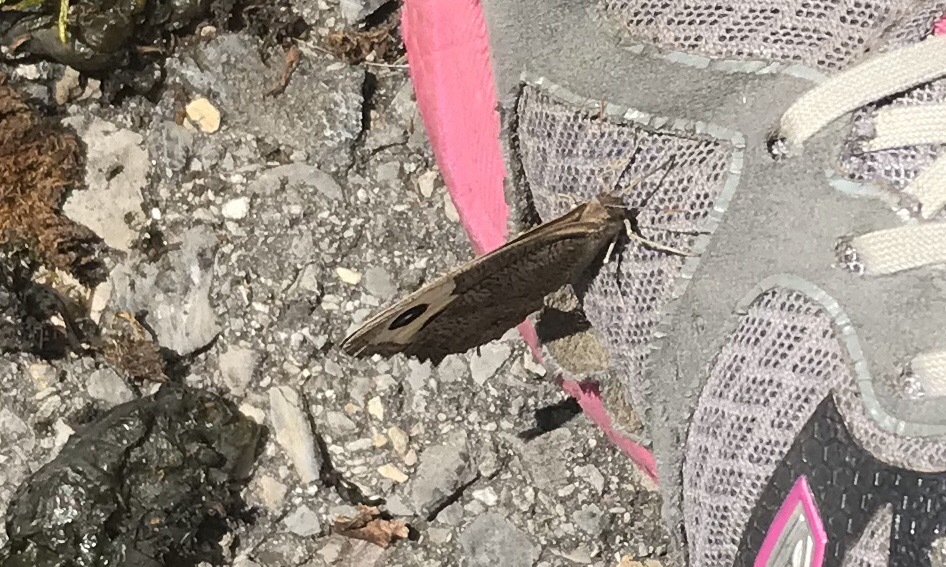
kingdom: Animalia
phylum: Arthropoda
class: Insecta
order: Lepidoptera
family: Nymphalidae
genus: Cercyonis
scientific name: Cercyonis pegala
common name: Common wood-nymph
